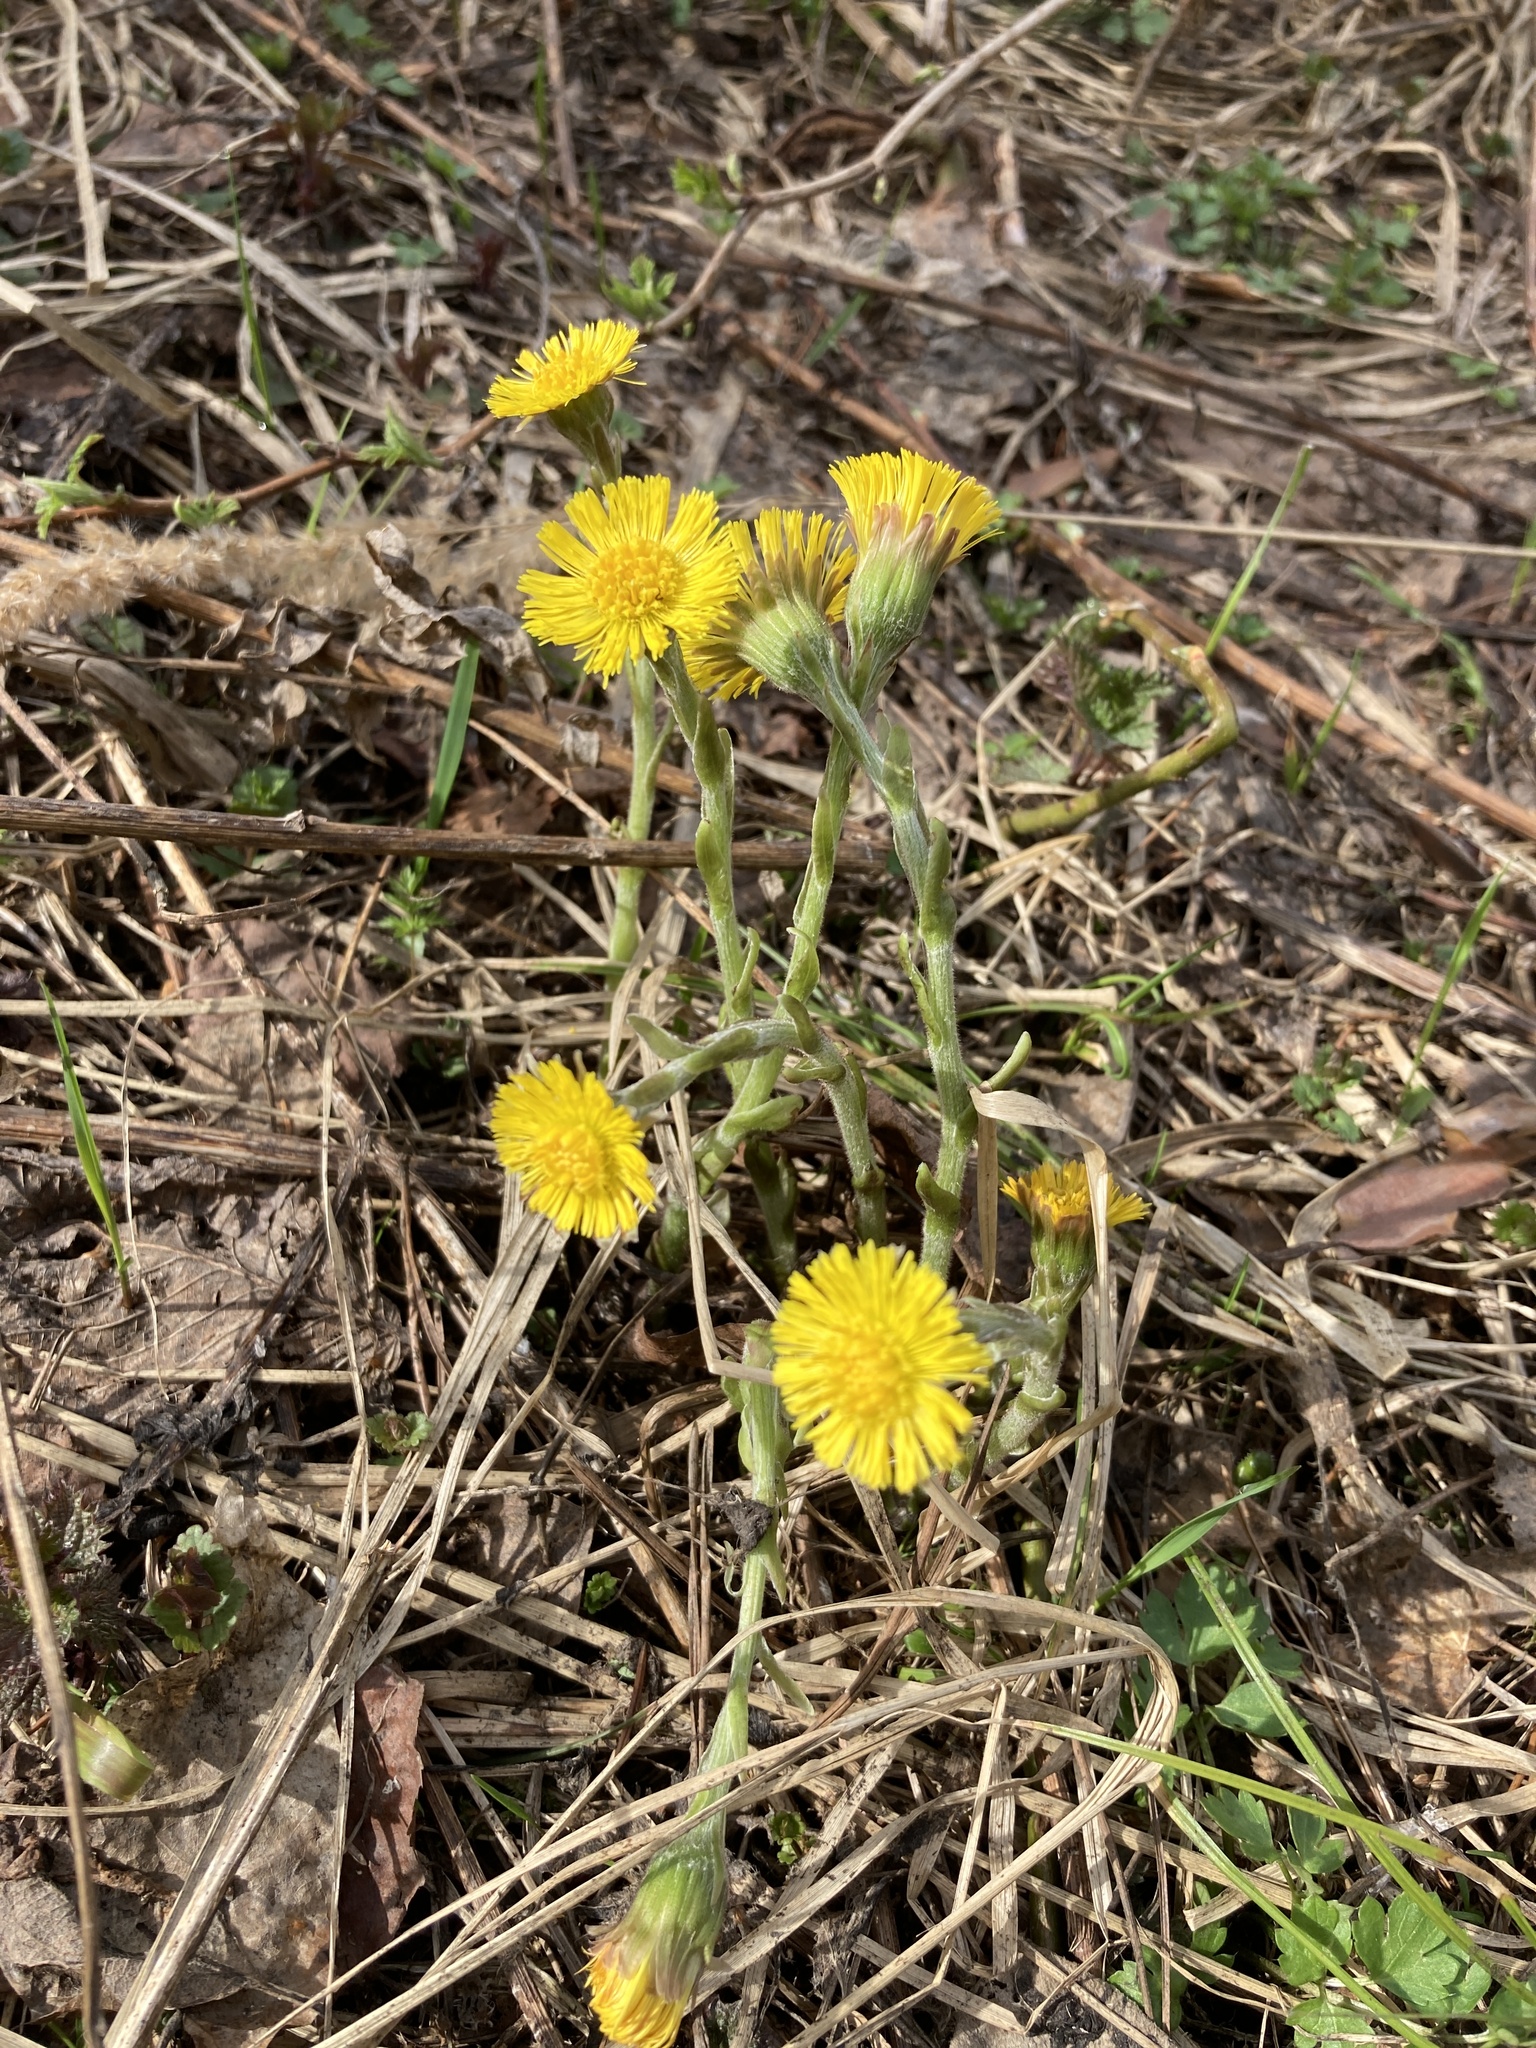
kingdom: Plantae
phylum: Tracheophyta
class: Magnoliopsida
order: Asterales
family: Asteraceae
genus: Tussilago
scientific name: Tussilago farfara
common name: Coltsfoot
